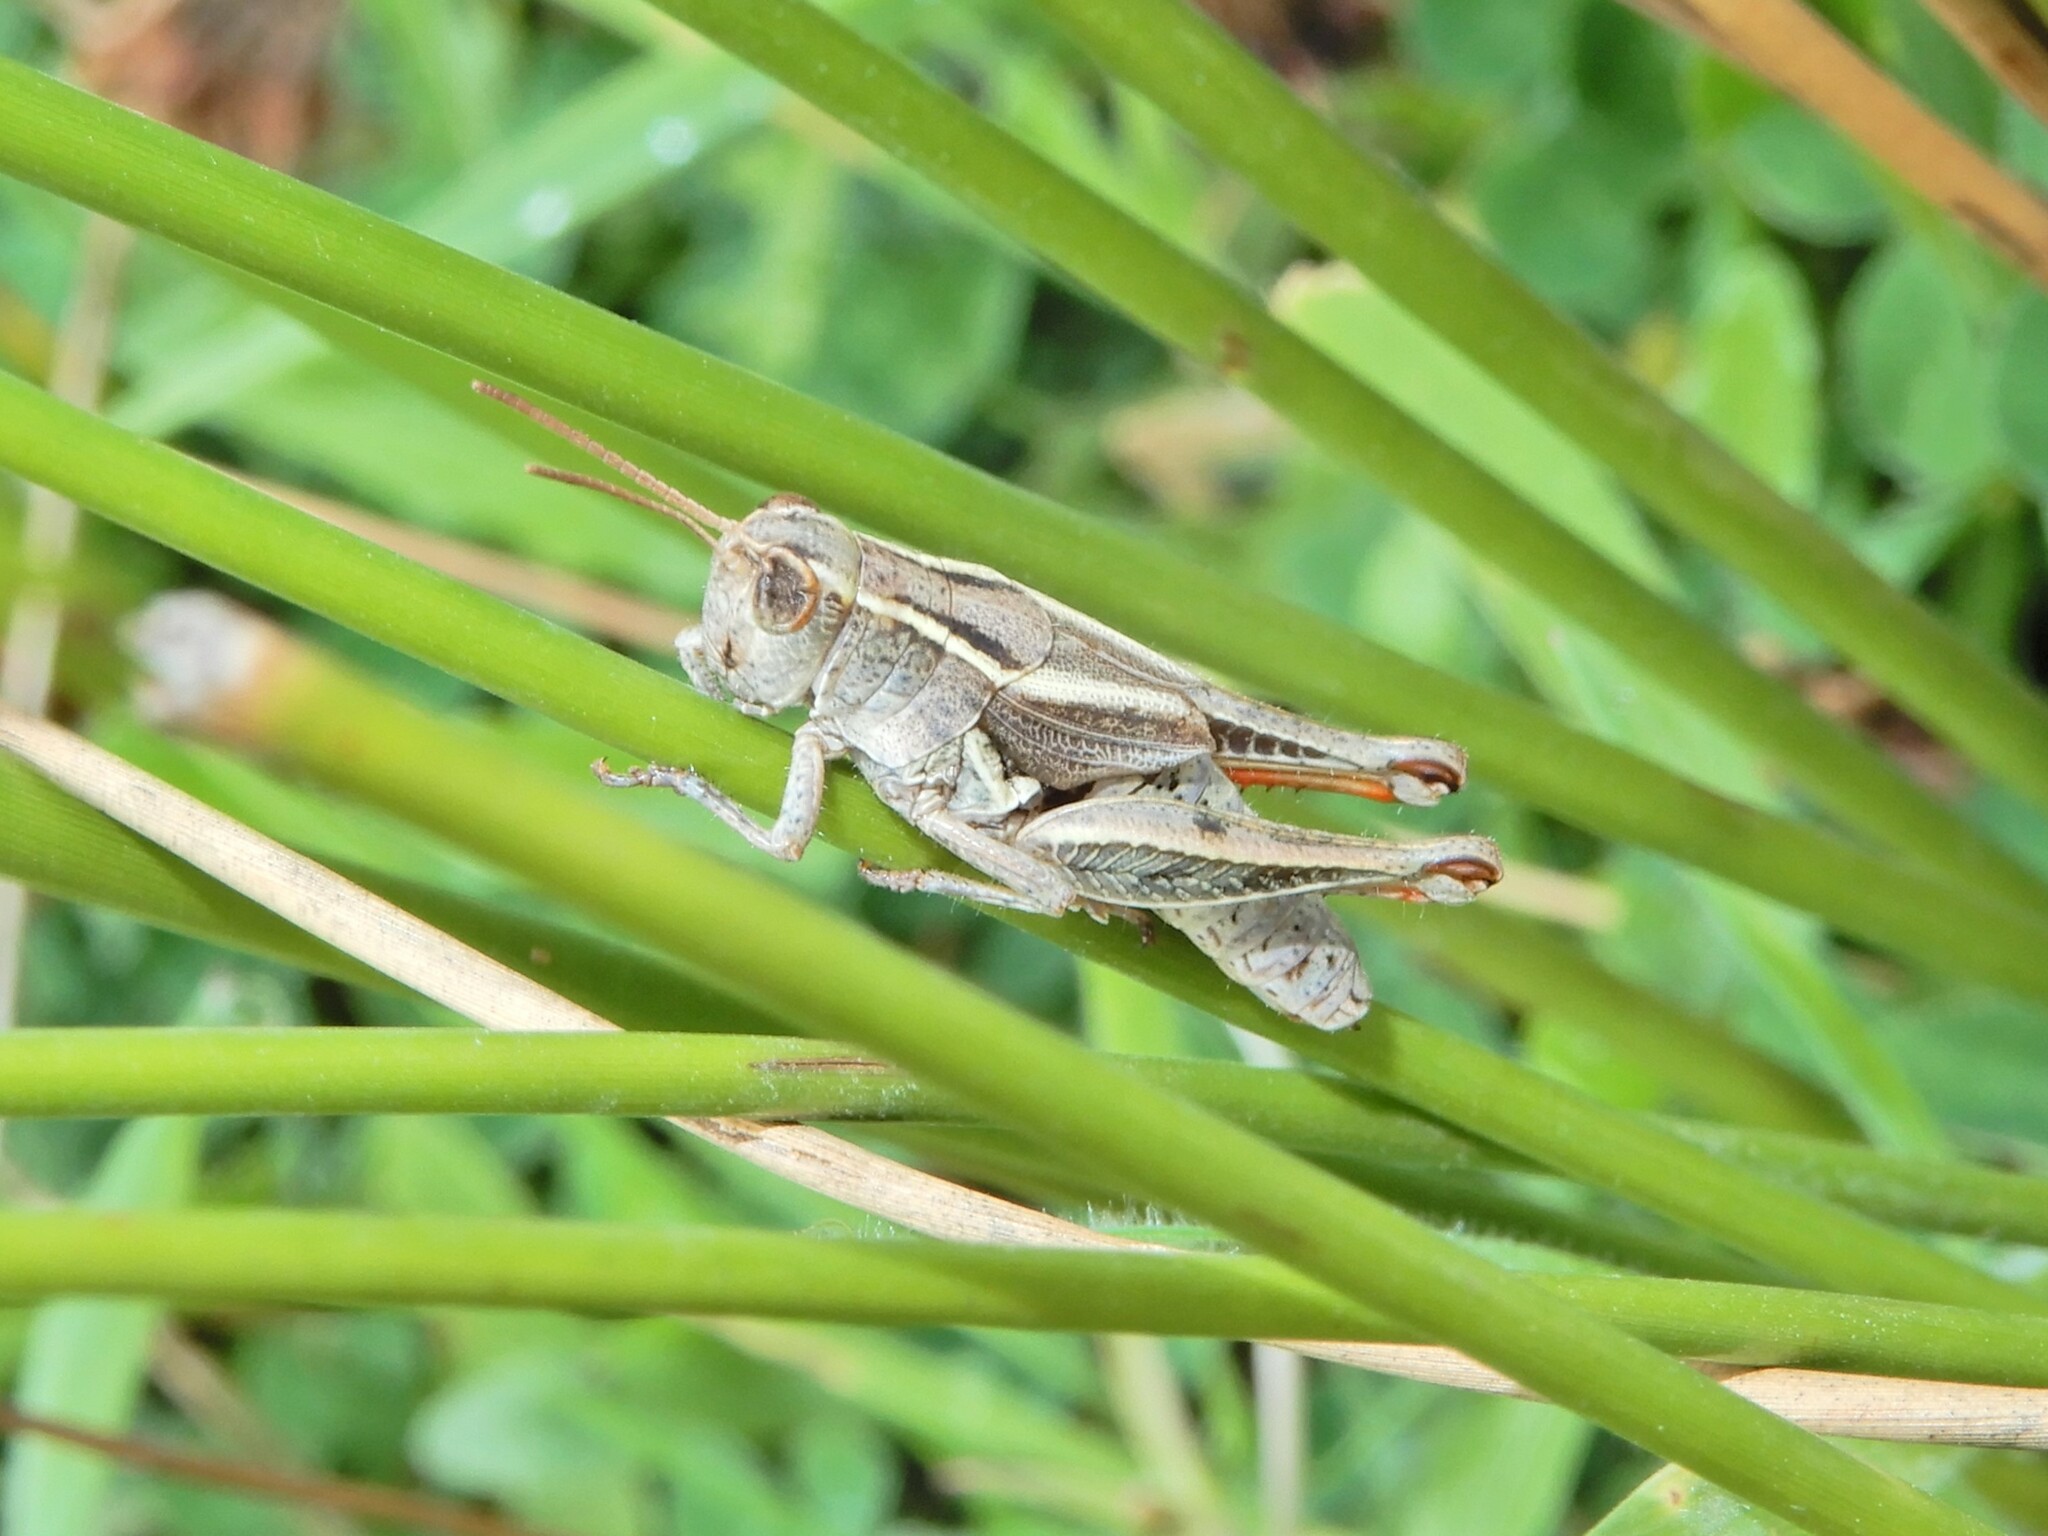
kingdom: Animalia
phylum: Arthropoda
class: Insecta
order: Orthoptera
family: Acrididae
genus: Phaulacridium
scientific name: Phaulacridium marginale
